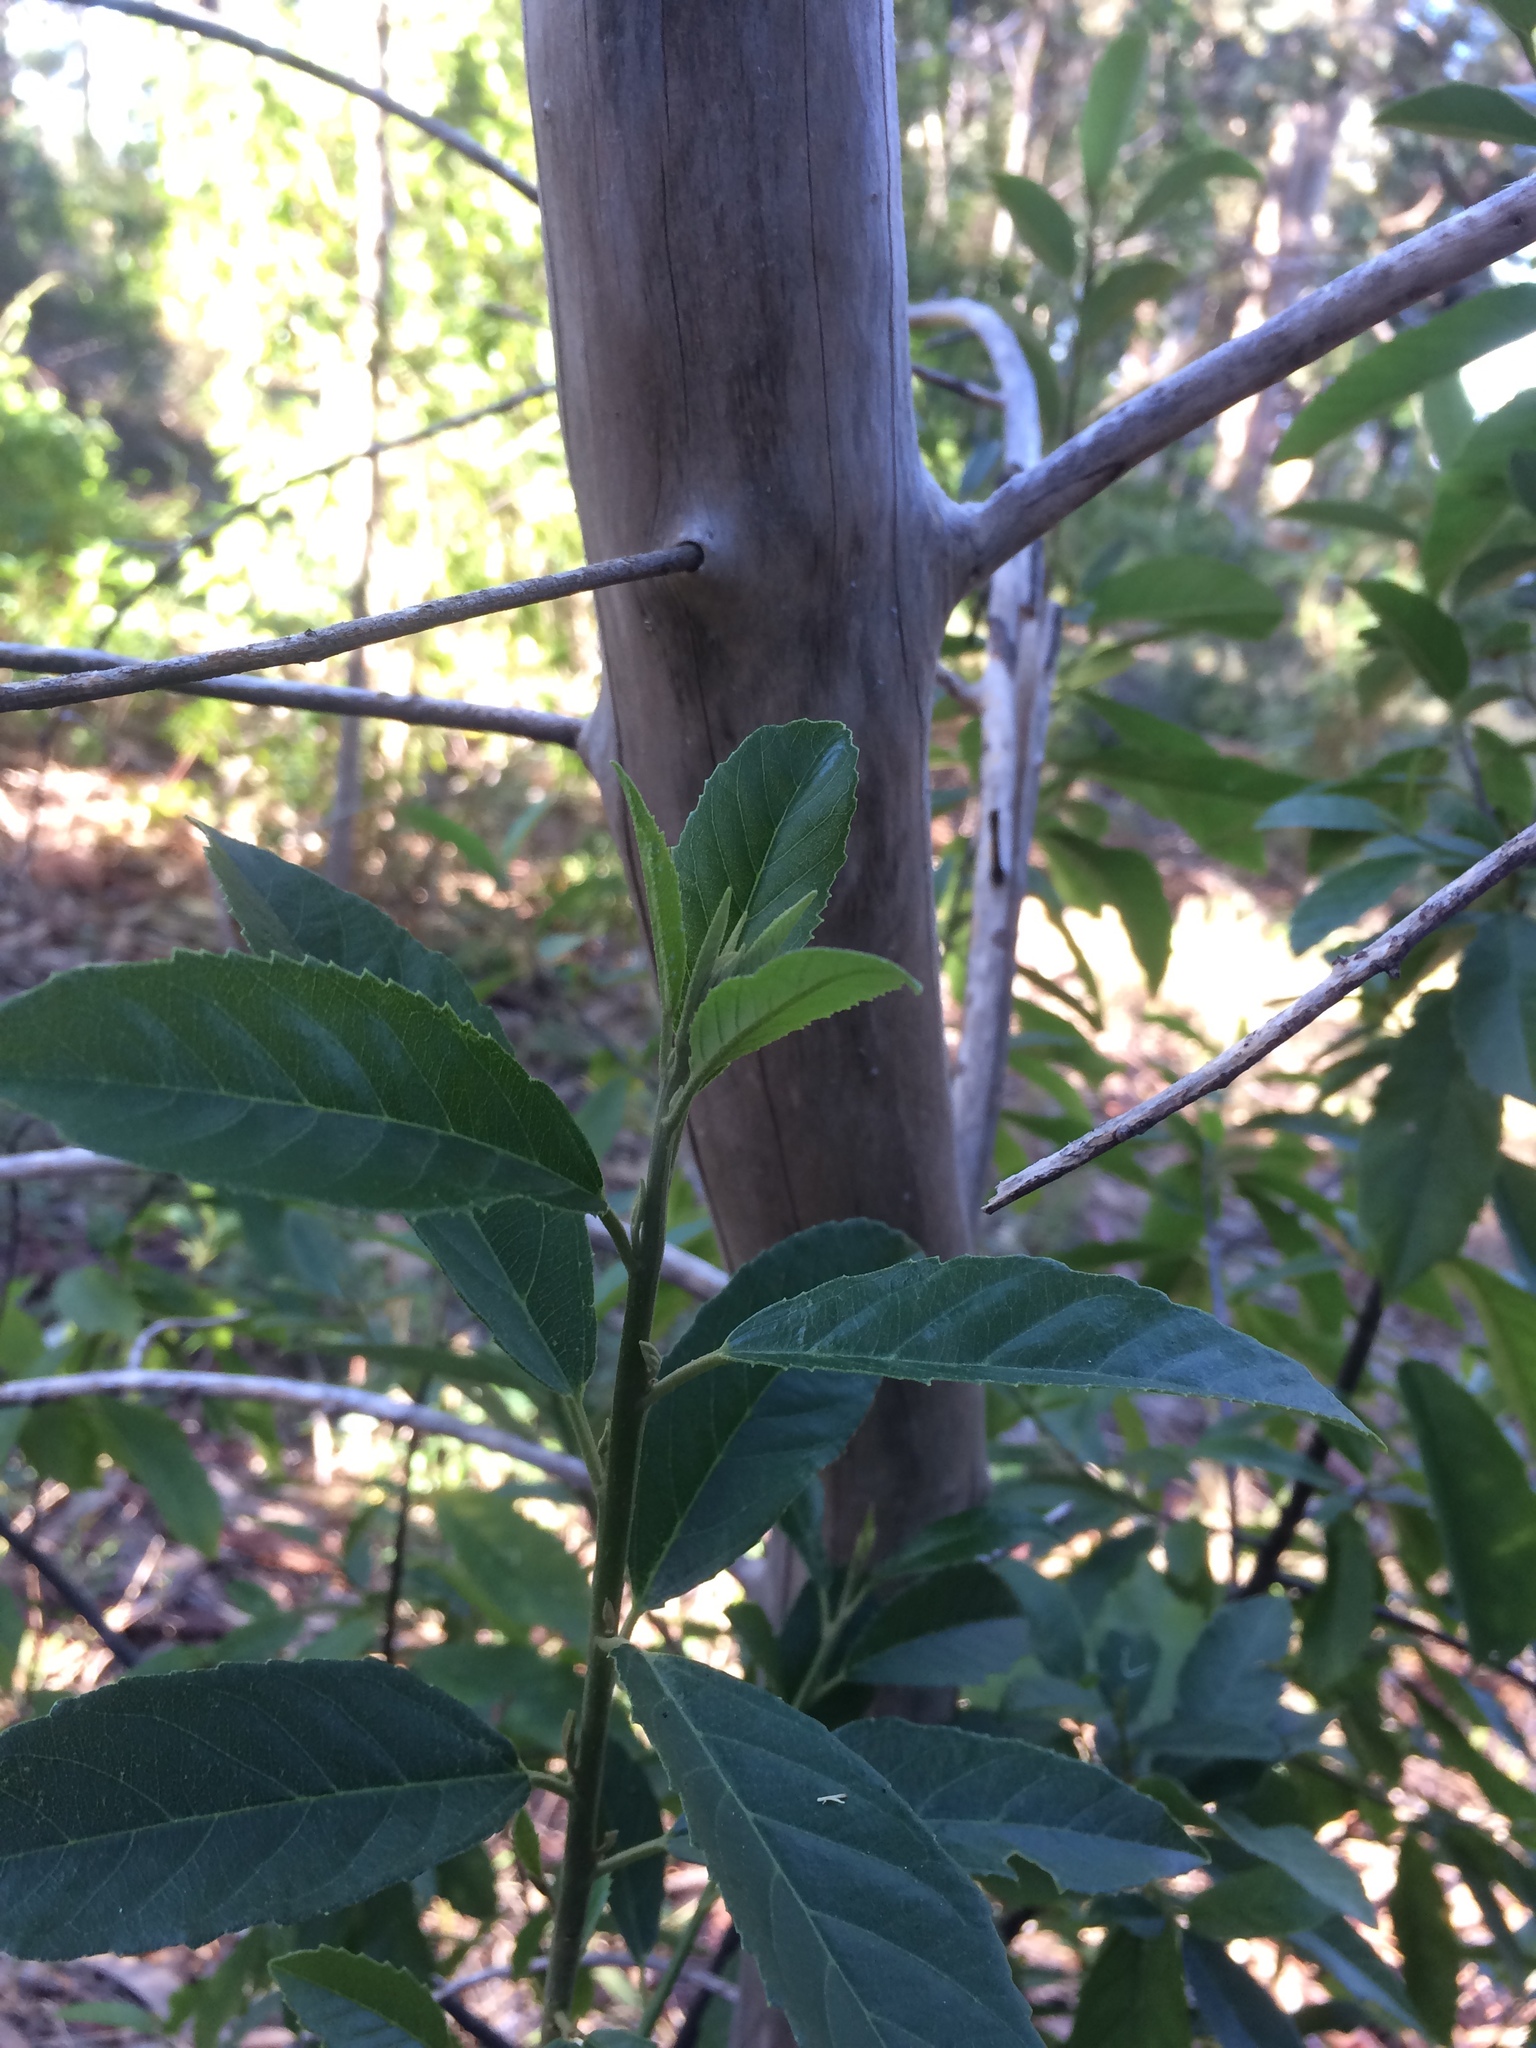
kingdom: Plantae
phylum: Tracheophyta
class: Magnoliopsida
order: Malpighiales
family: Achariaceae
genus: Kiggelaria
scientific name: Kiggelaria africana
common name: Wild peach
